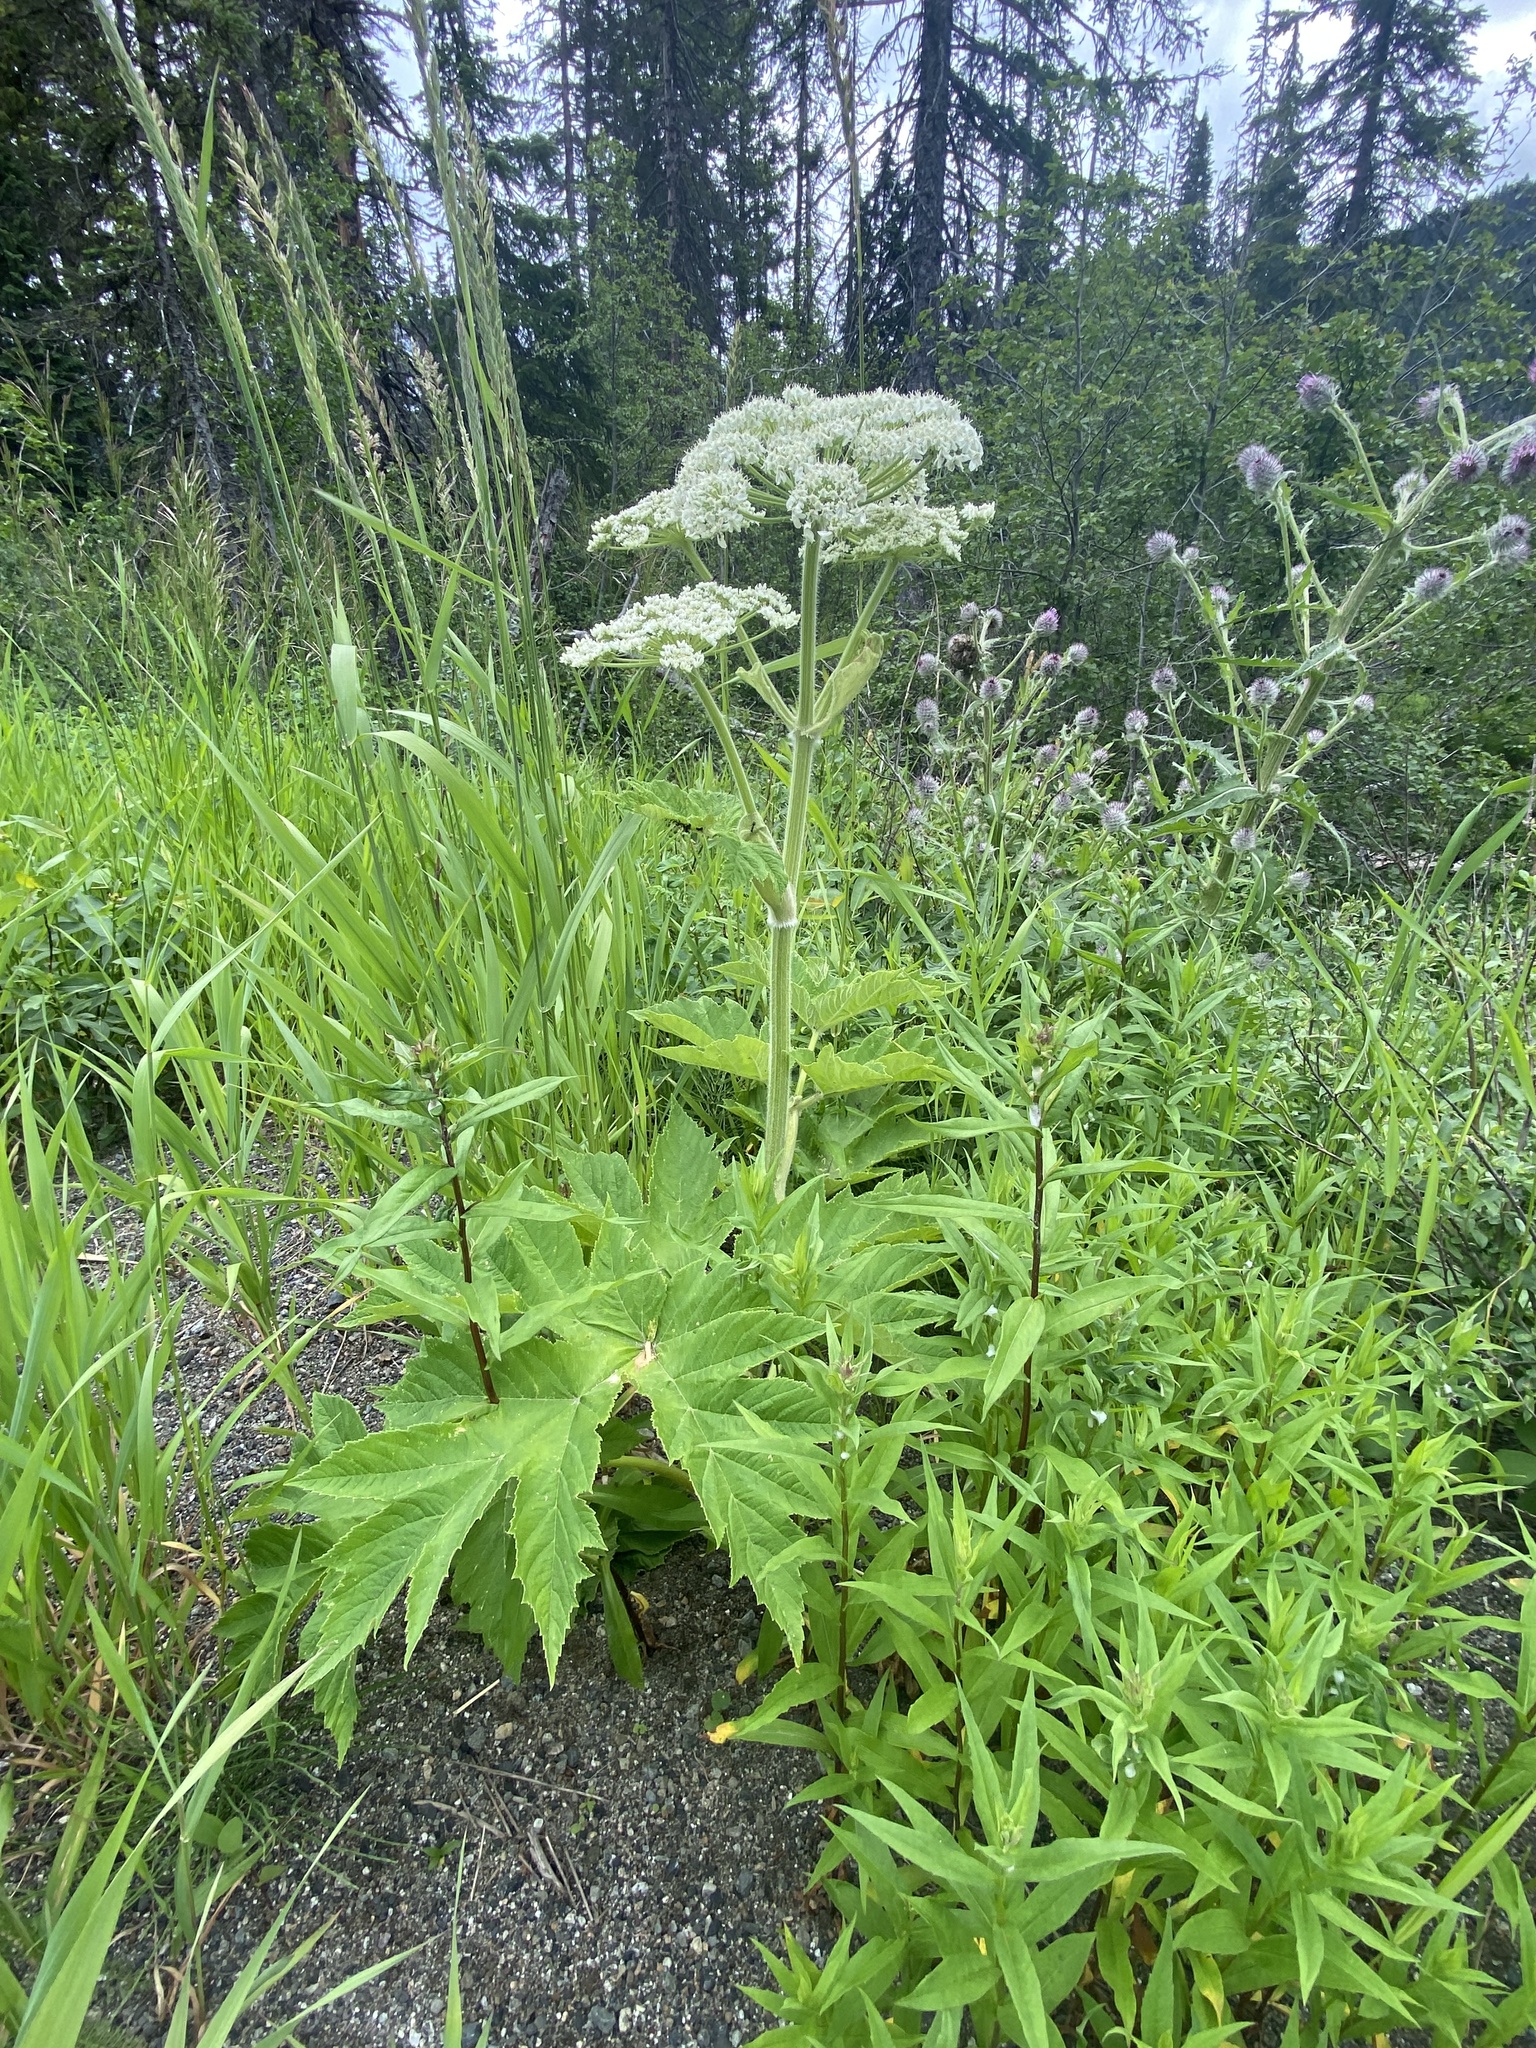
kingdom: Plantae
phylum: Tracheophyta
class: Magnoliopsida
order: Apiales
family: Apiaceae
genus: Heracleum
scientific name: Heracleum maximum
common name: American cow parsnip
